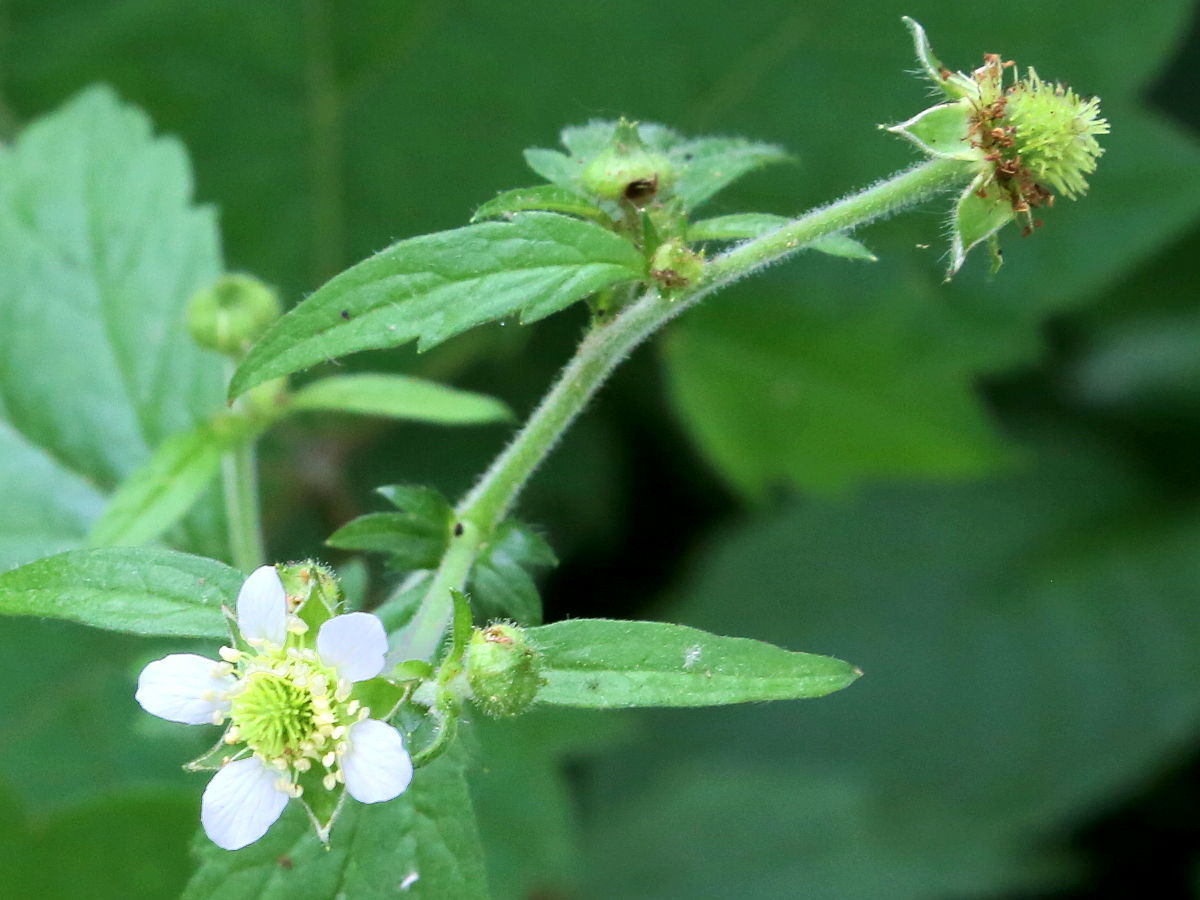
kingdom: Plantae
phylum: Tracheophyta
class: Magnoliopsida
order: Rosales
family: Rosaceae
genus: Geum
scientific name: Geum canadense
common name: White avens
